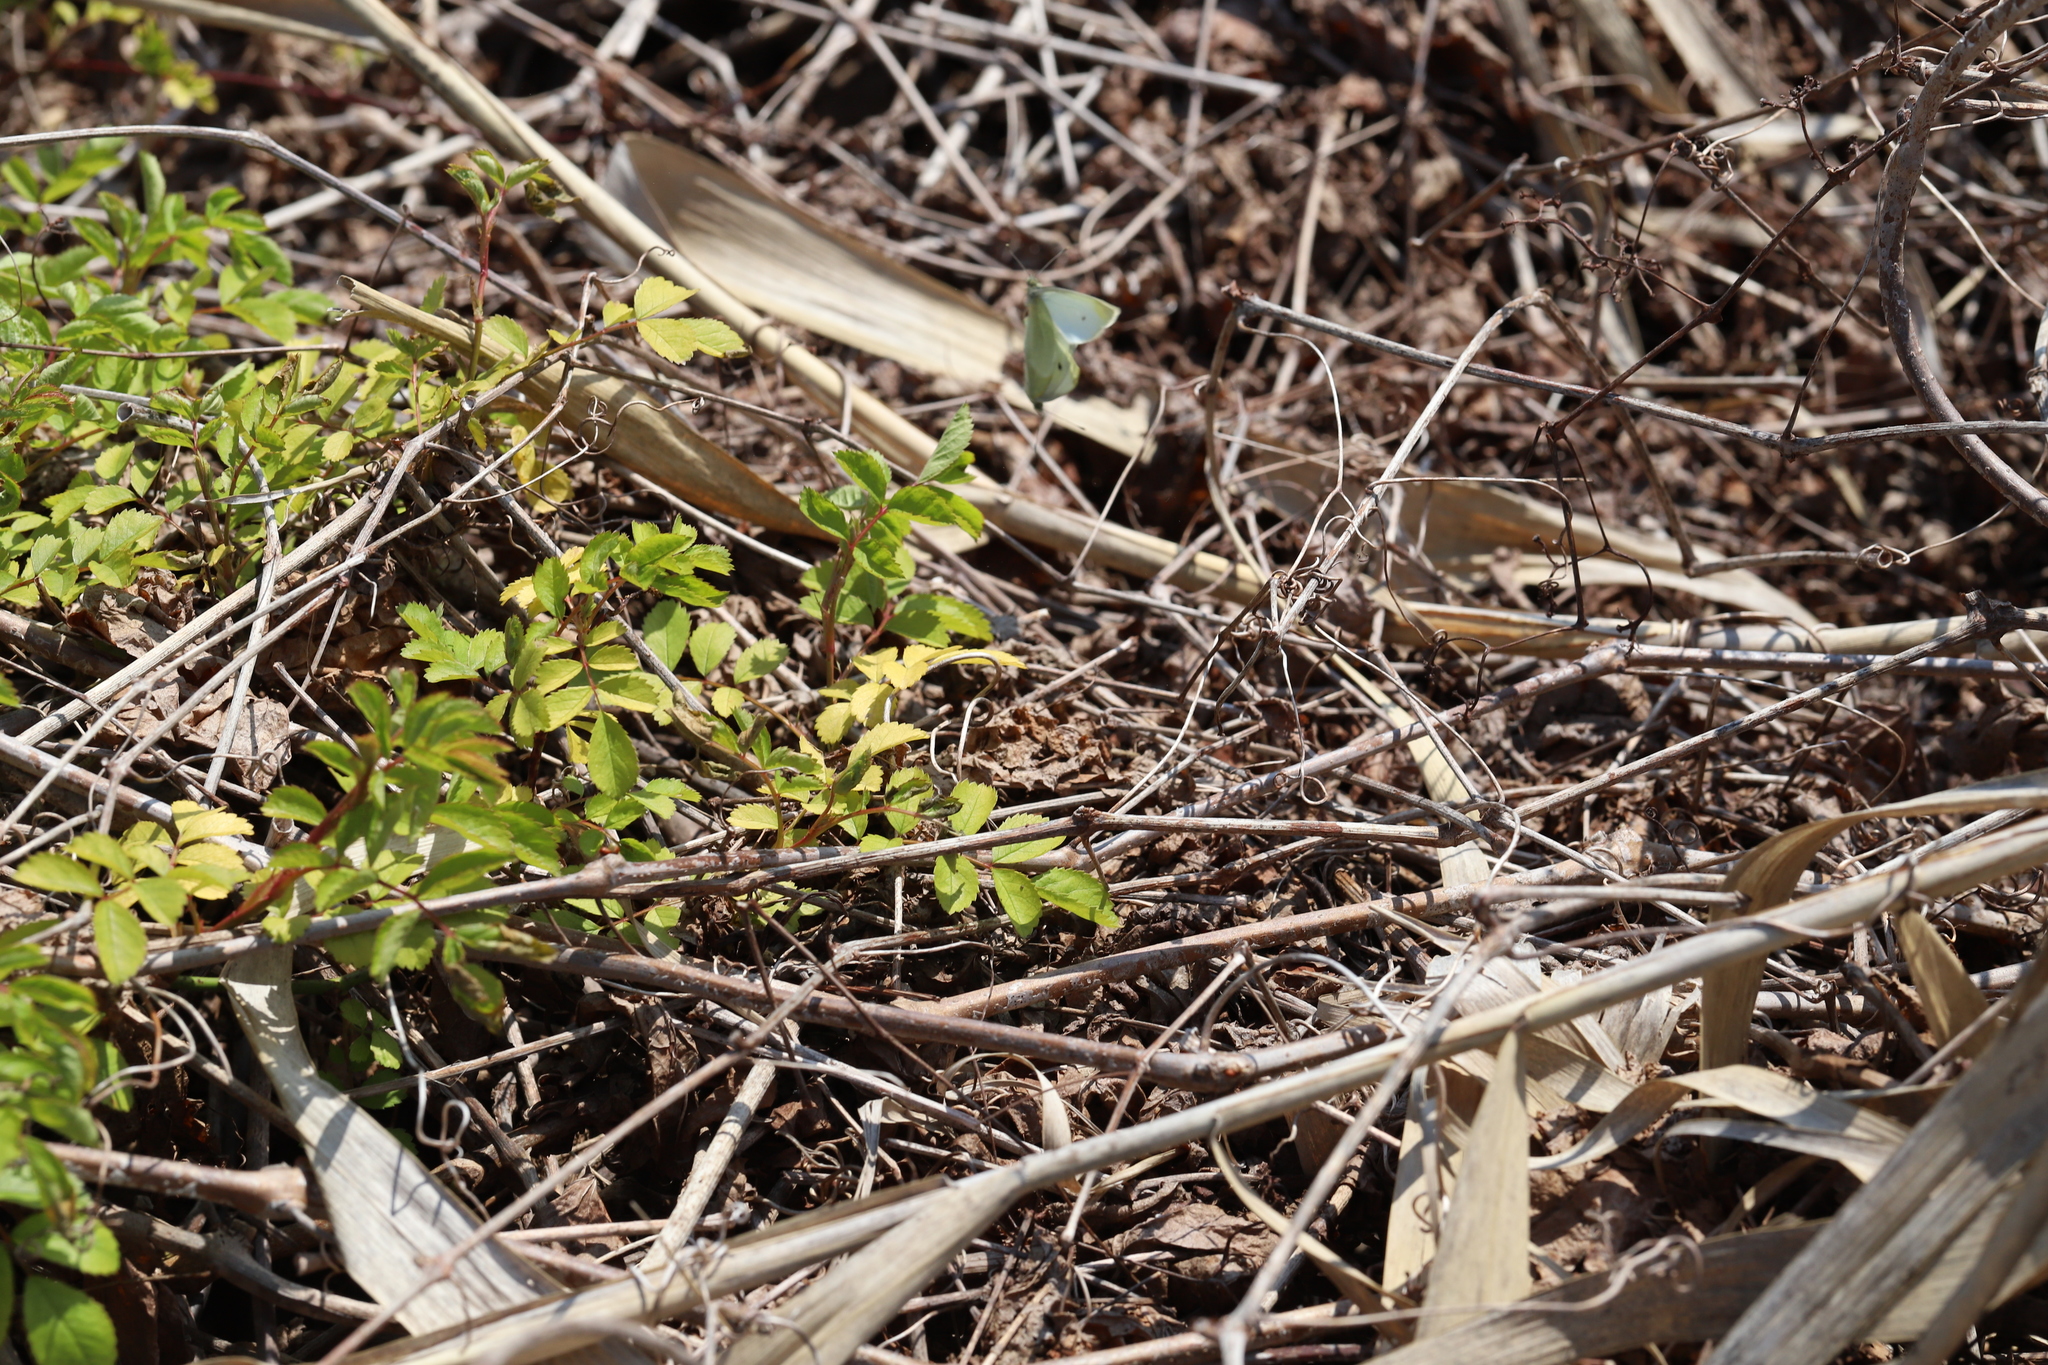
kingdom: Plantae
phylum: Tracheophyta
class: Magnoliopsida
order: Rosales
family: Rosaceae
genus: Rosa
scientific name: Rosa multiflora
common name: Multiflora rose
